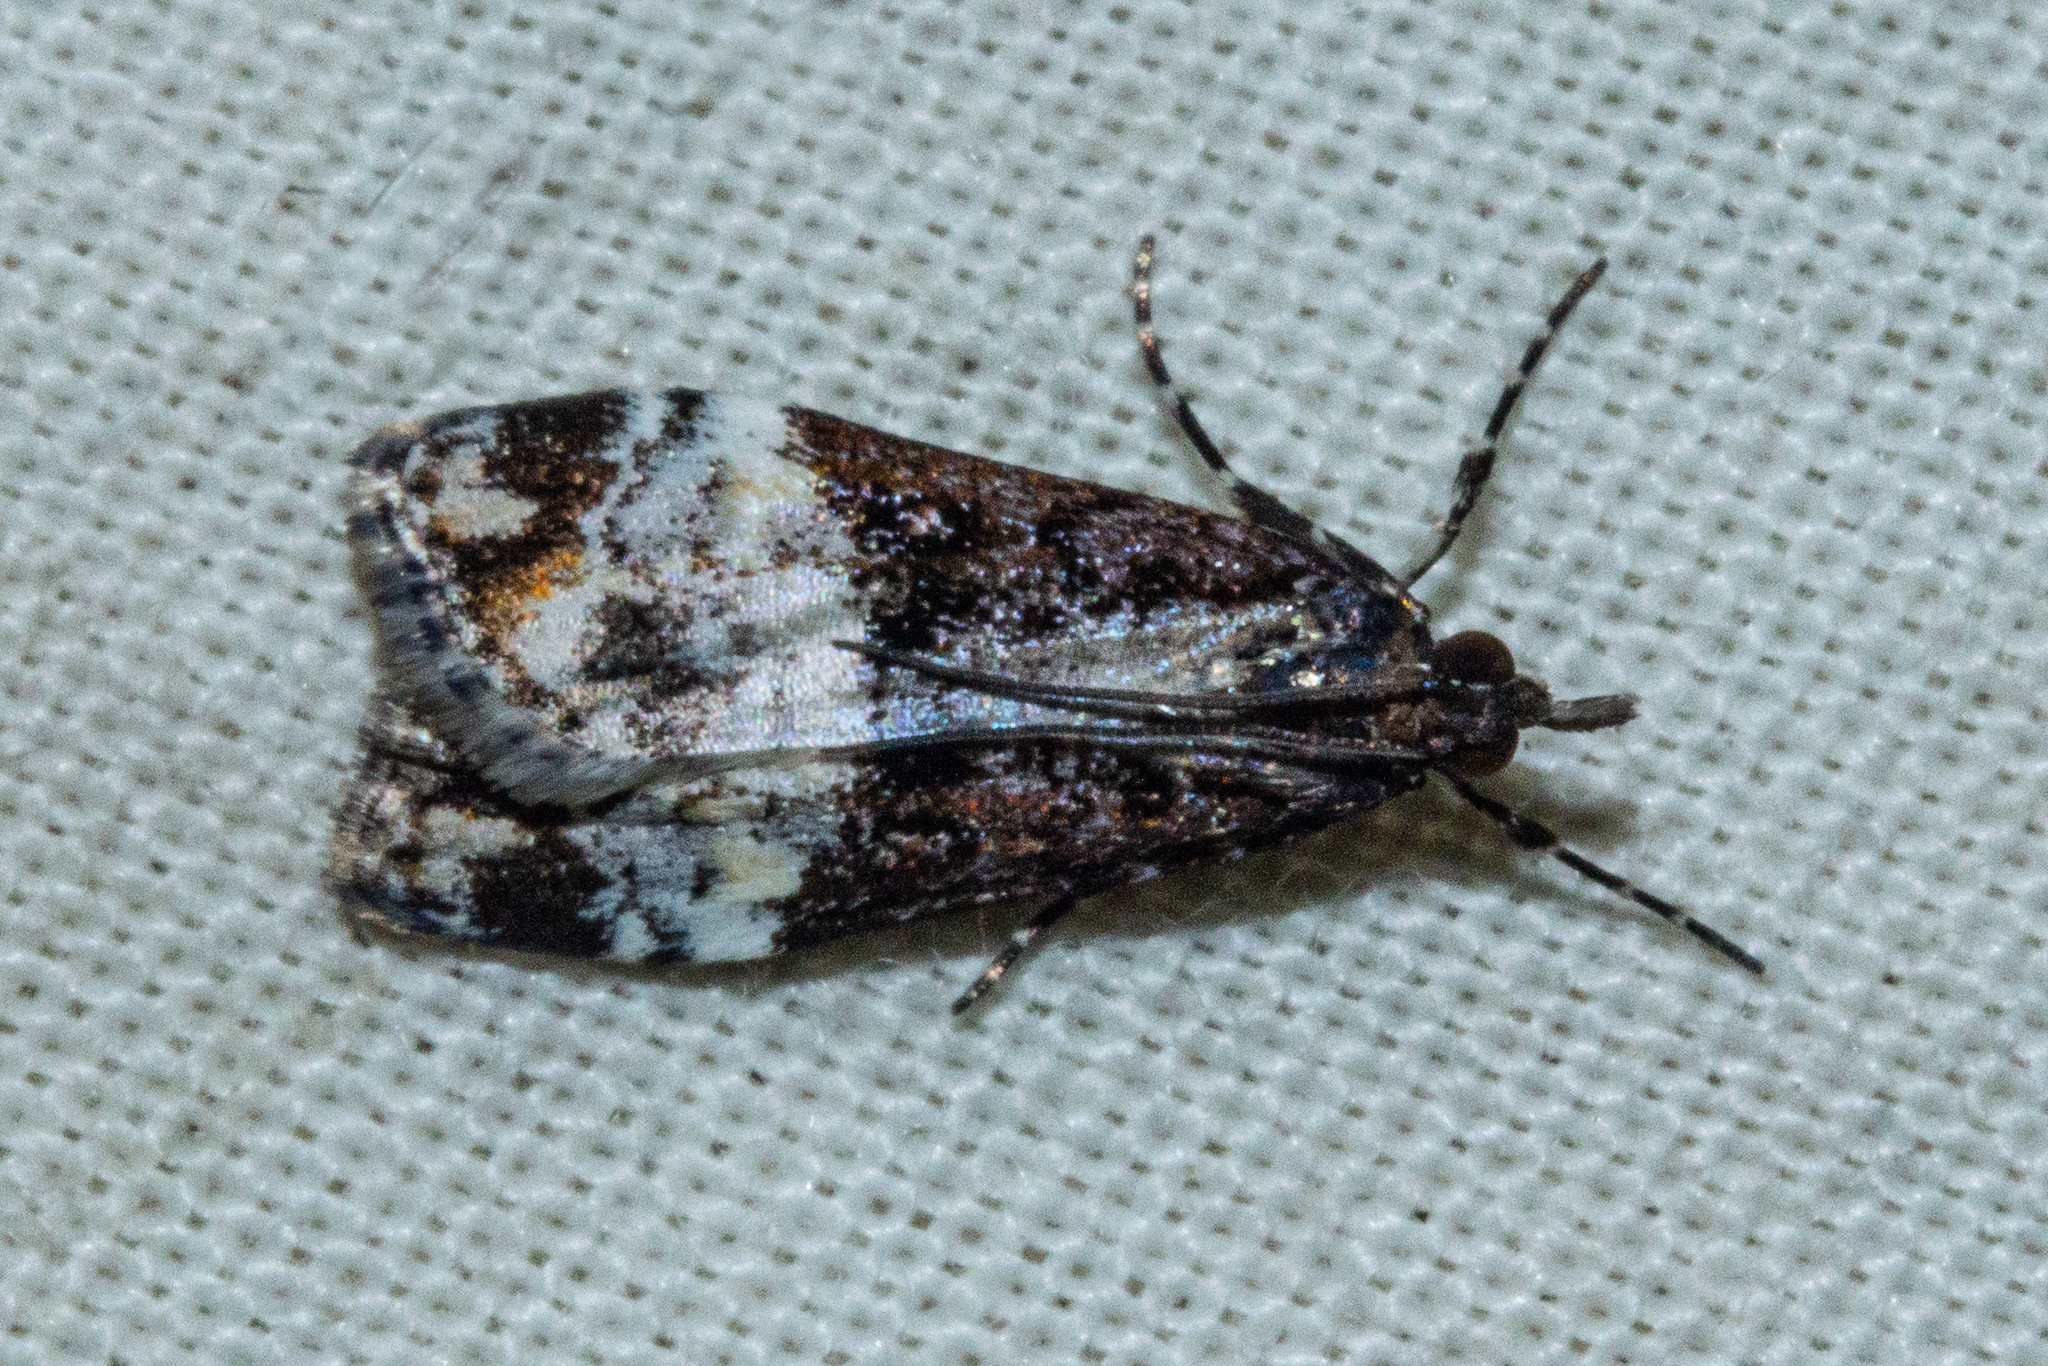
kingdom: Animalia
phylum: Arthropoda
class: Insecta
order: Lepidoptera
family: Crambidae
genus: Scoparia
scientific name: Scoparia minusculalis
